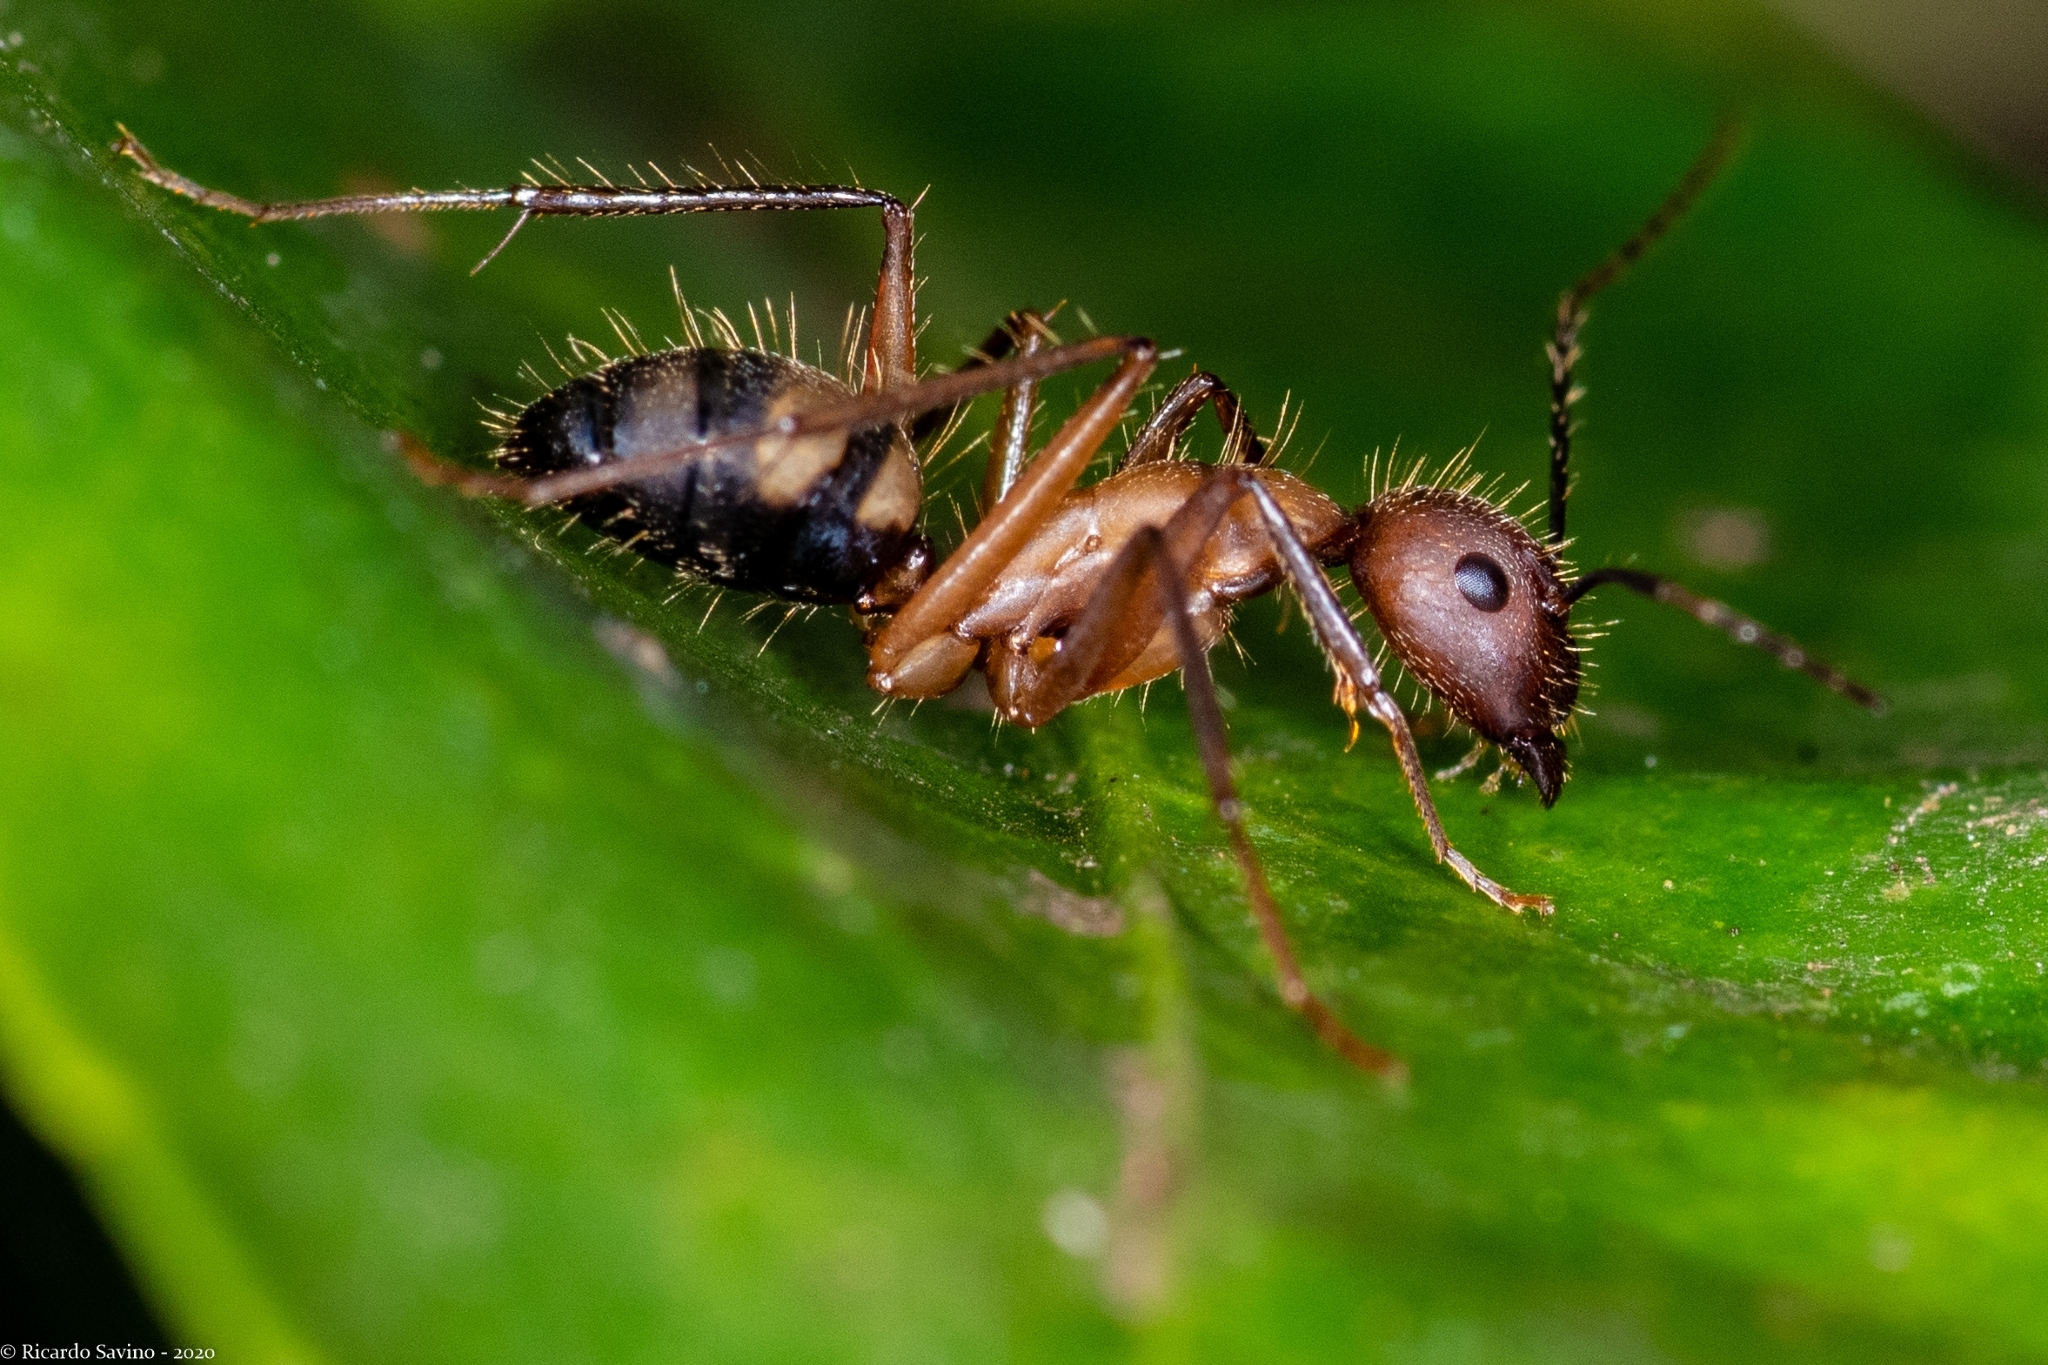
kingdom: Animalia
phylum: Arthropoda
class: Insecta
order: Hymenoptera
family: Formicidae
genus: Camponotus
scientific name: Camponotus cingulatus
